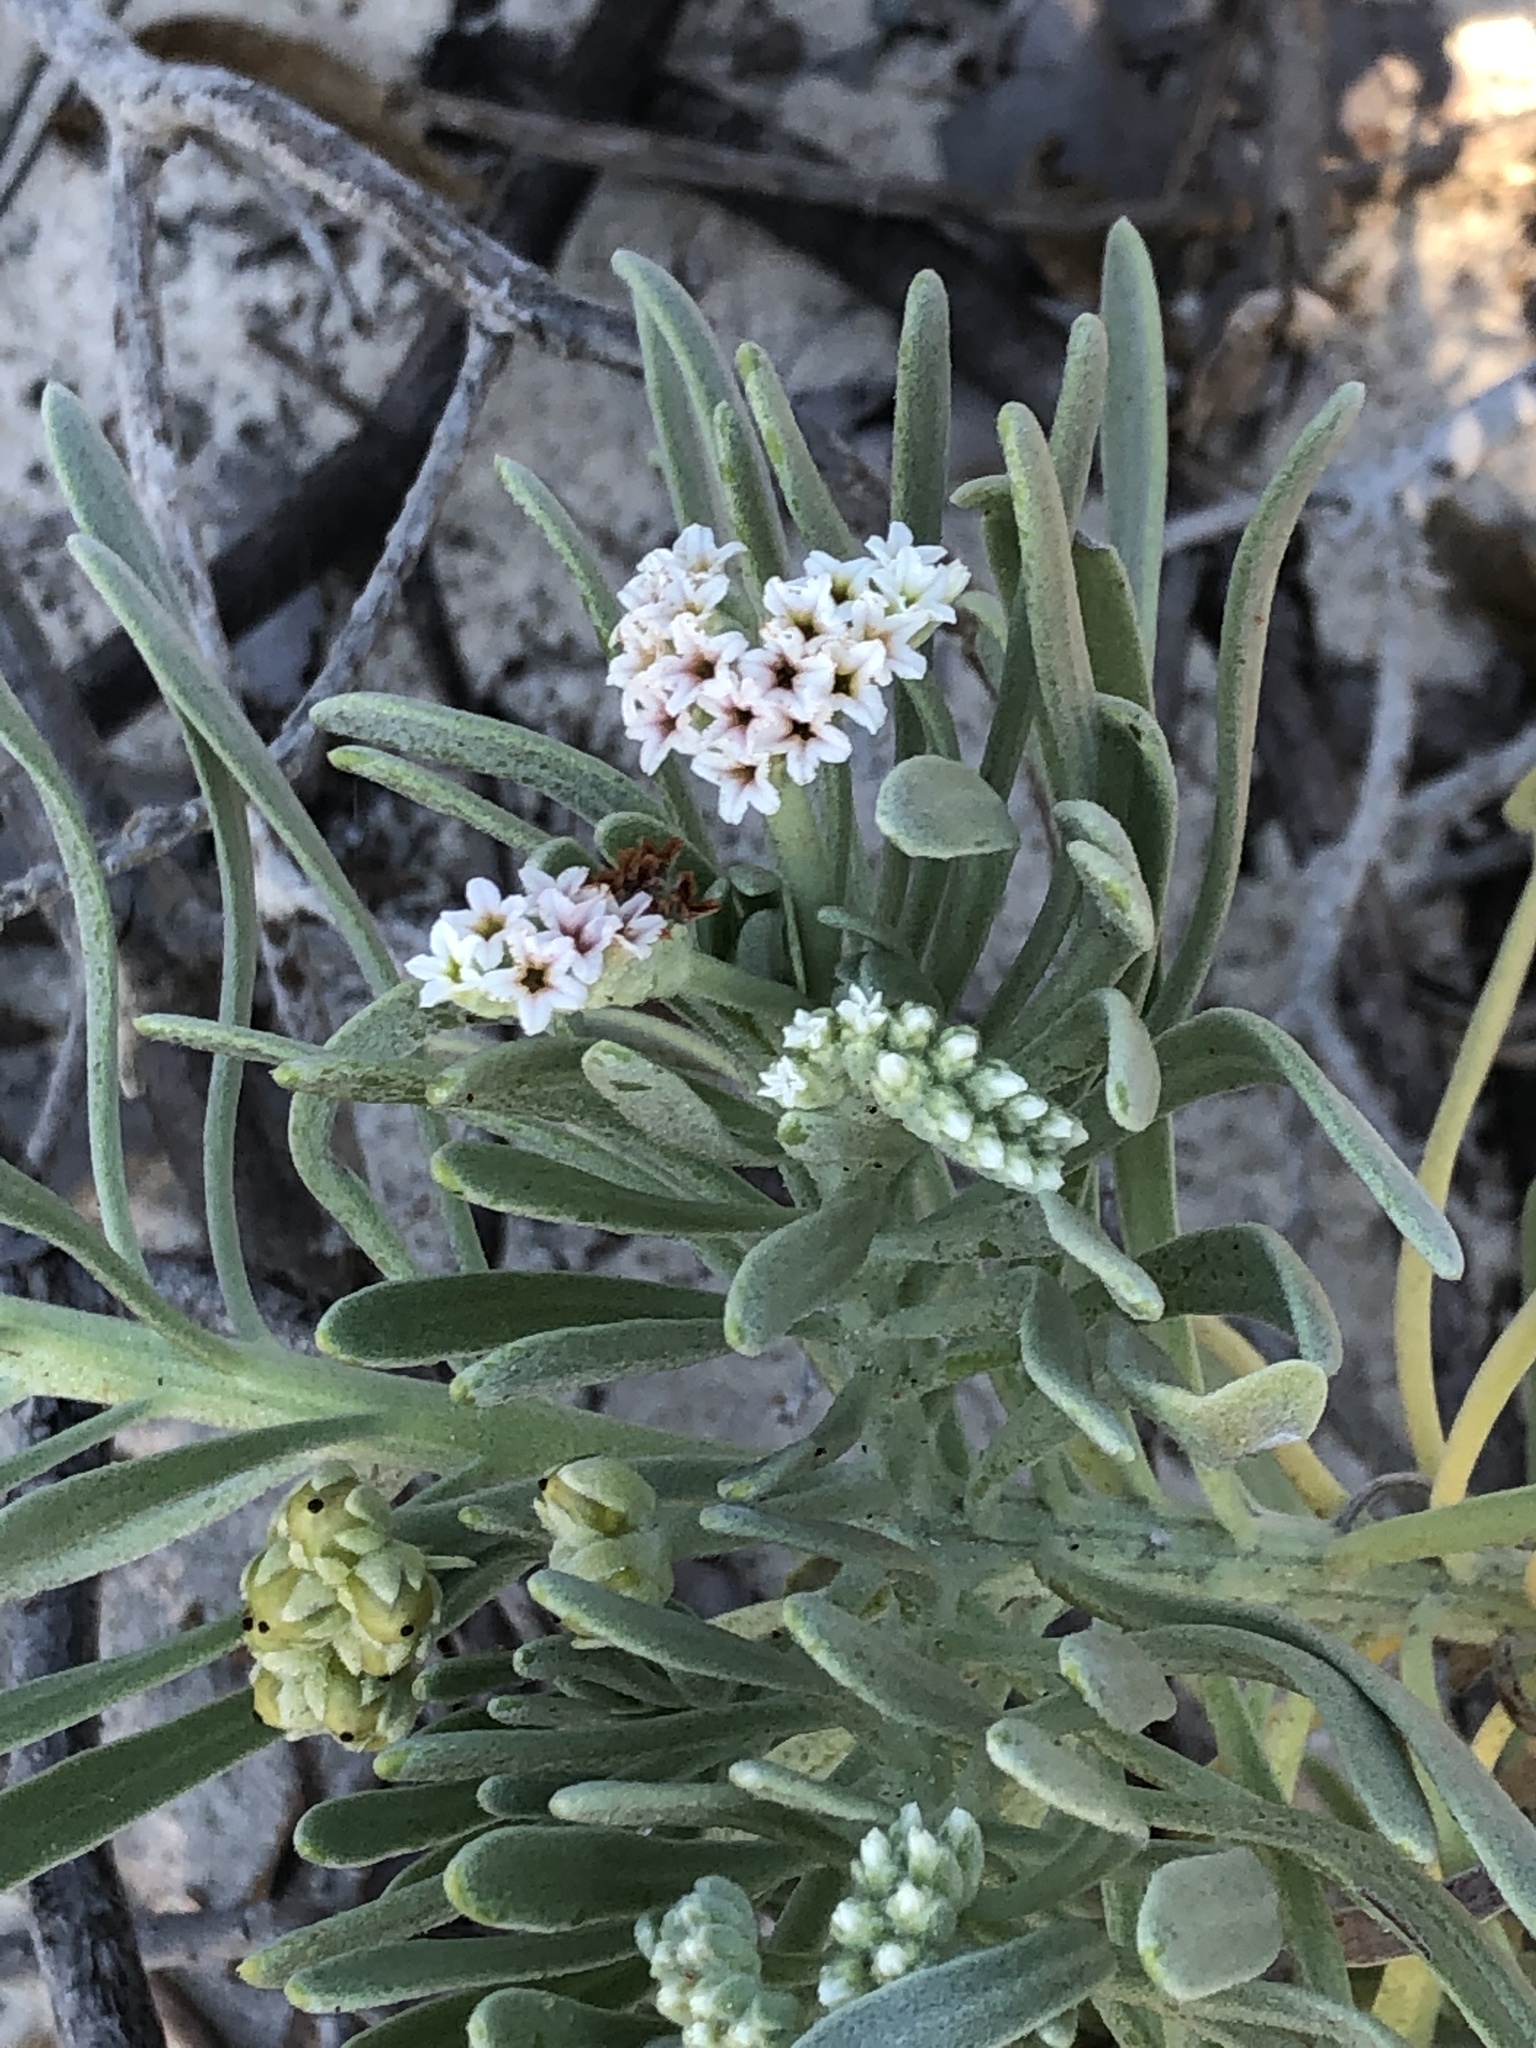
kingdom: Plantae
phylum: Tracheophyta
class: Magnoliopsida
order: Boraginales
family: Heliotropiaceae
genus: Heliotropium
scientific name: Heliotropium angiospermum
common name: Eye bright
